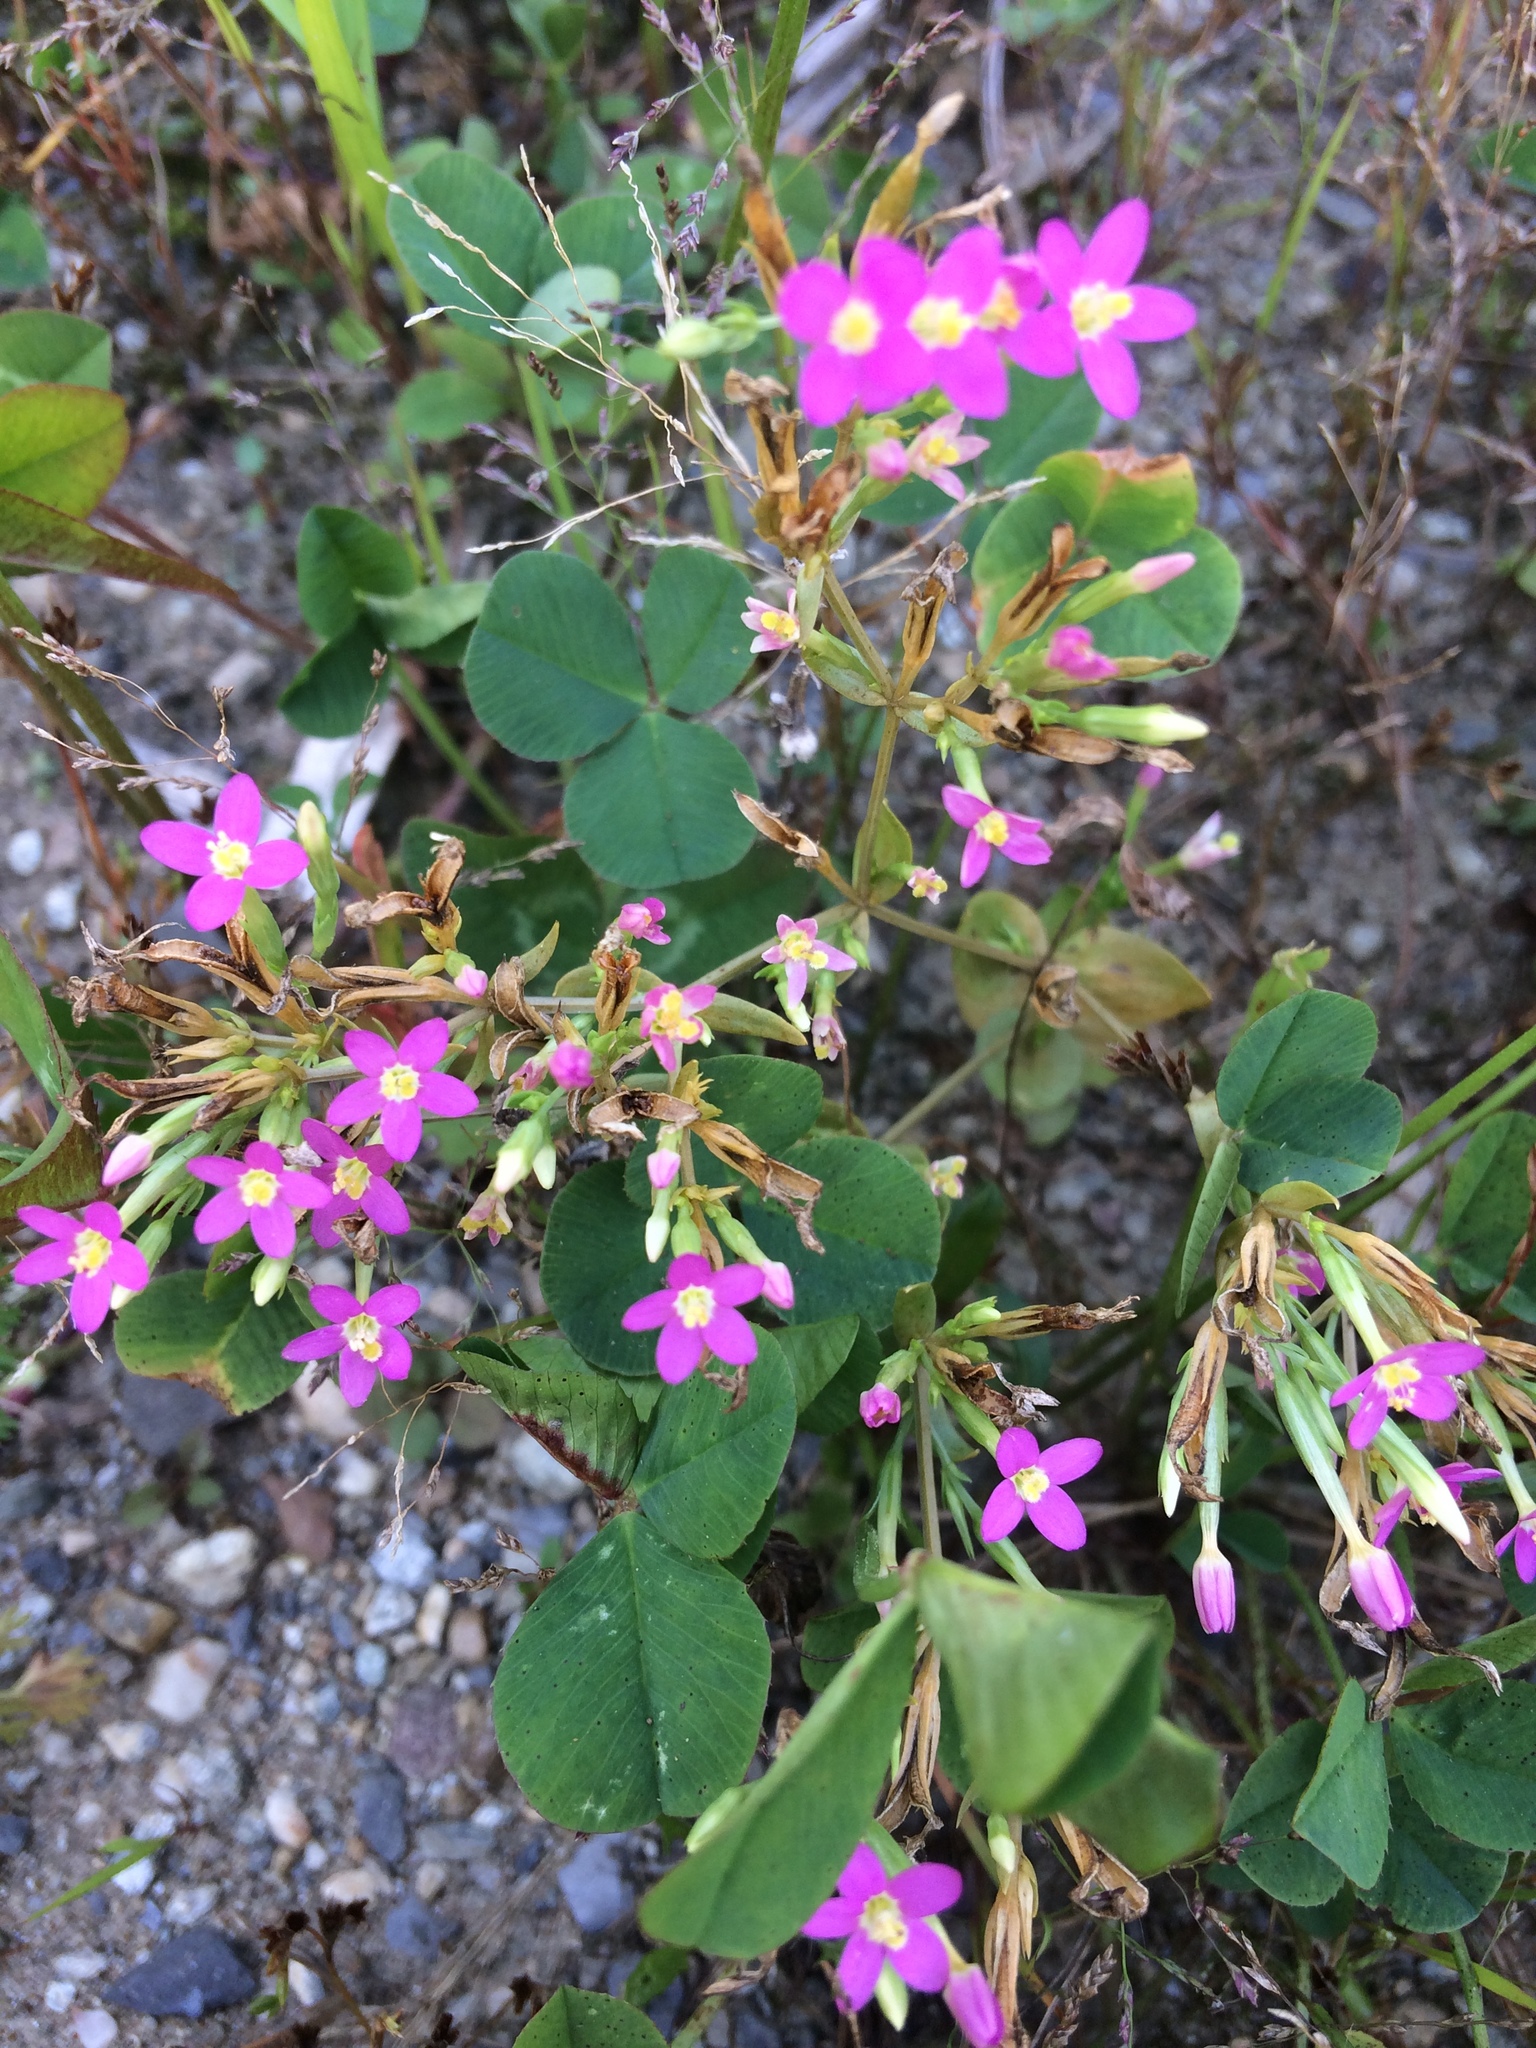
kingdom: Plantae
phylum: Tracheophyta
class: Magnoliopsida
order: Gentianales
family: Gentianaceae
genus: Centaurium
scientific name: Centaurium erythraea
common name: Common centaury
